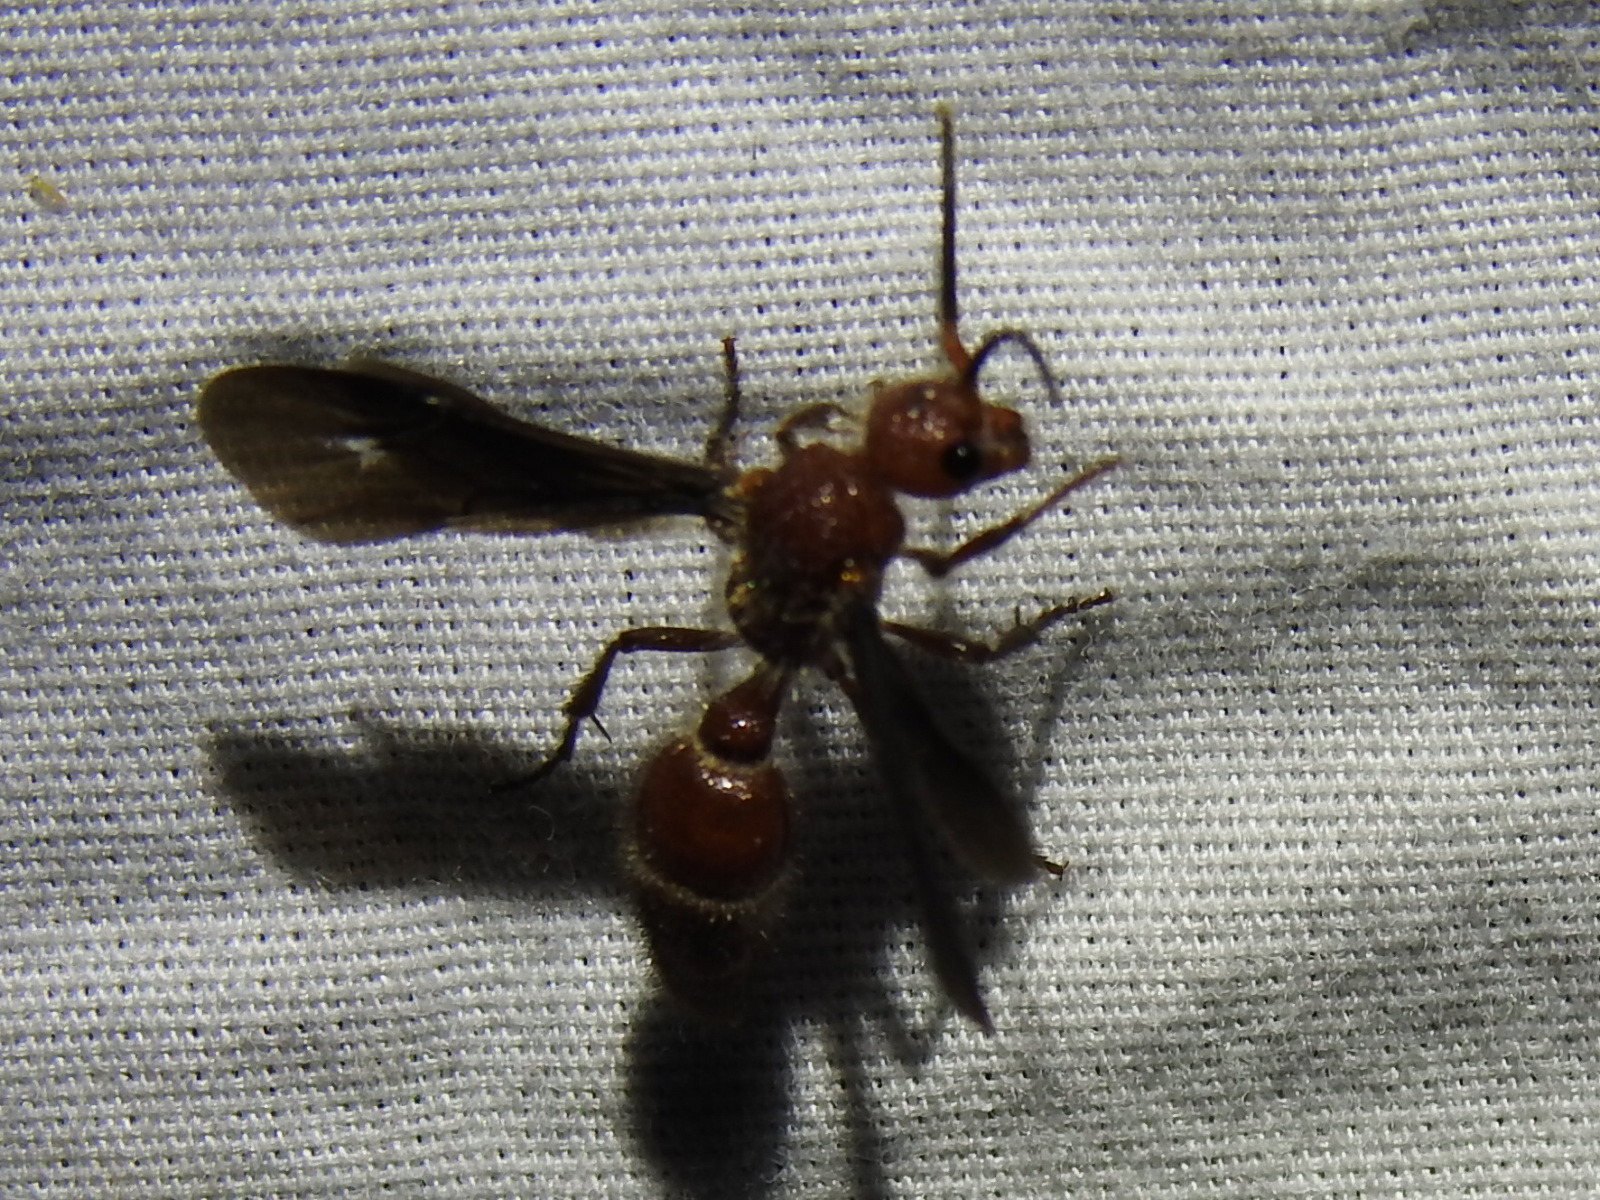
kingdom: Animalia
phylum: Arthropoda
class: Insecta
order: Hymenoptera
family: Mutillidae
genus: Sphaeropthalma
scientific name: Sphaeropthalma
